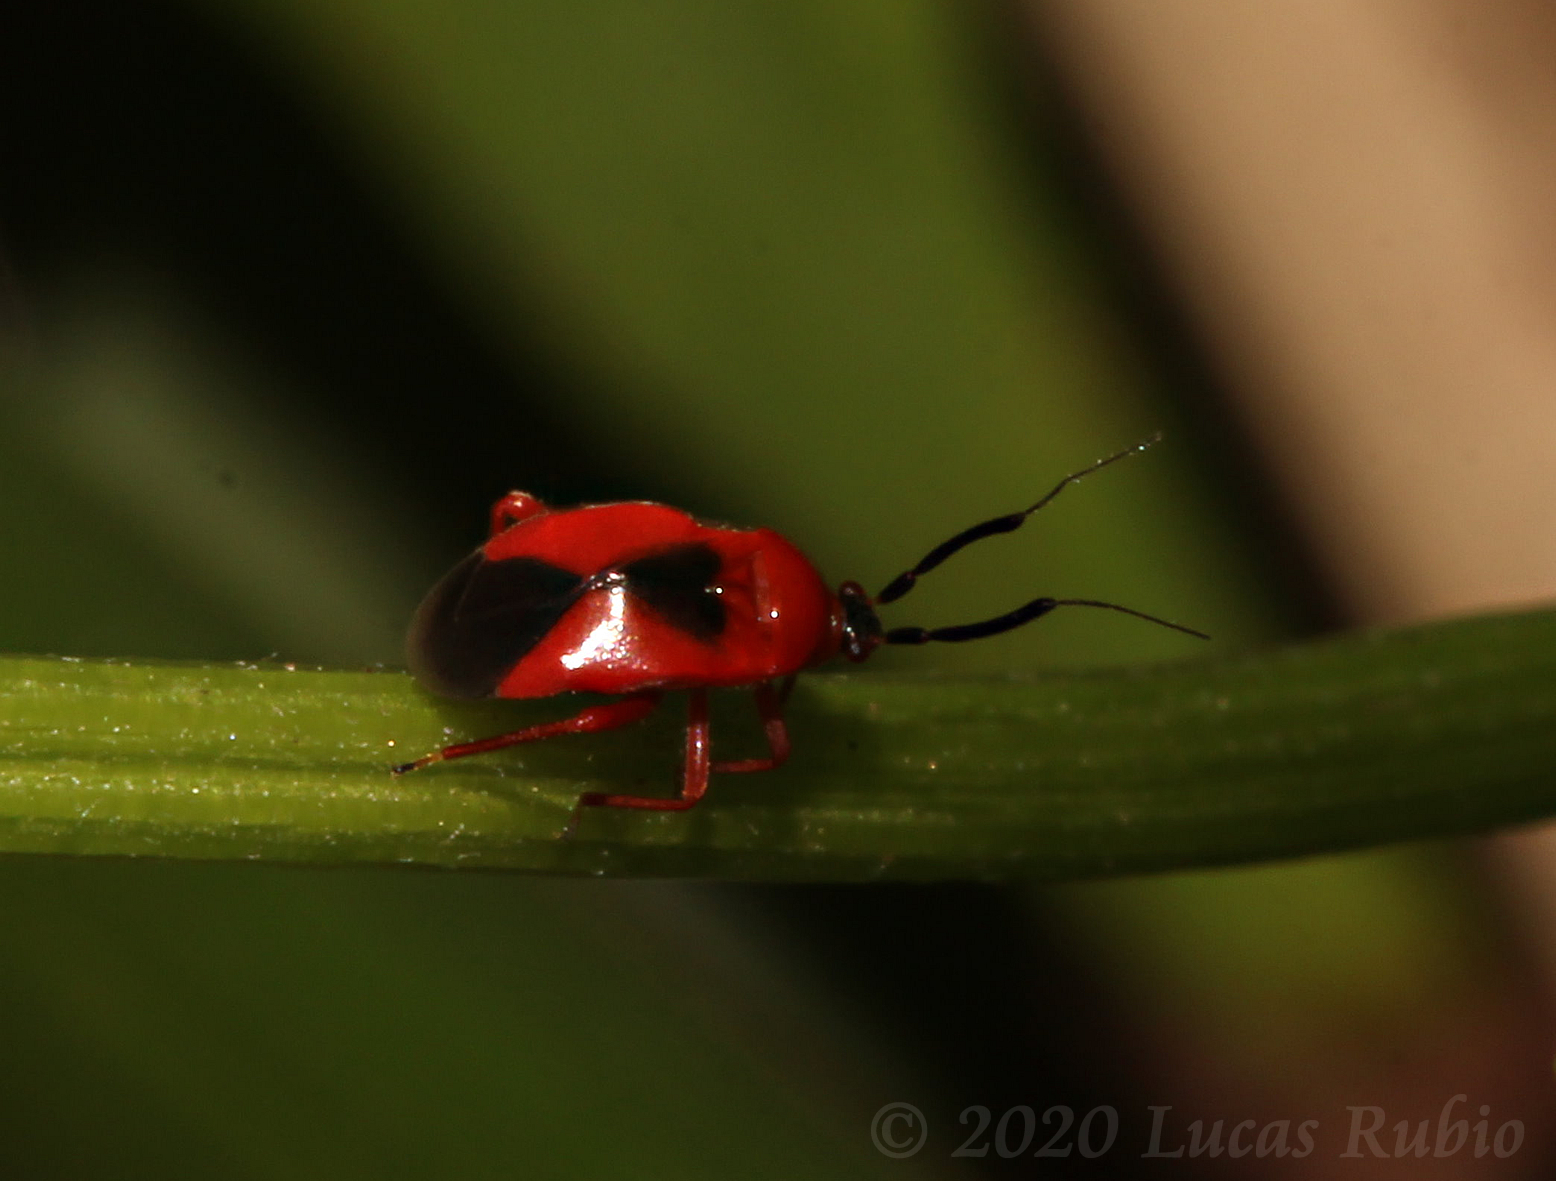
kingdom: Animalia
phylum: Arthropoda
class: Insecta
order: Hemiptera
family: Miridae
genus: Pachymerocerus
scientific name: Pachymerocerus erythronotus
